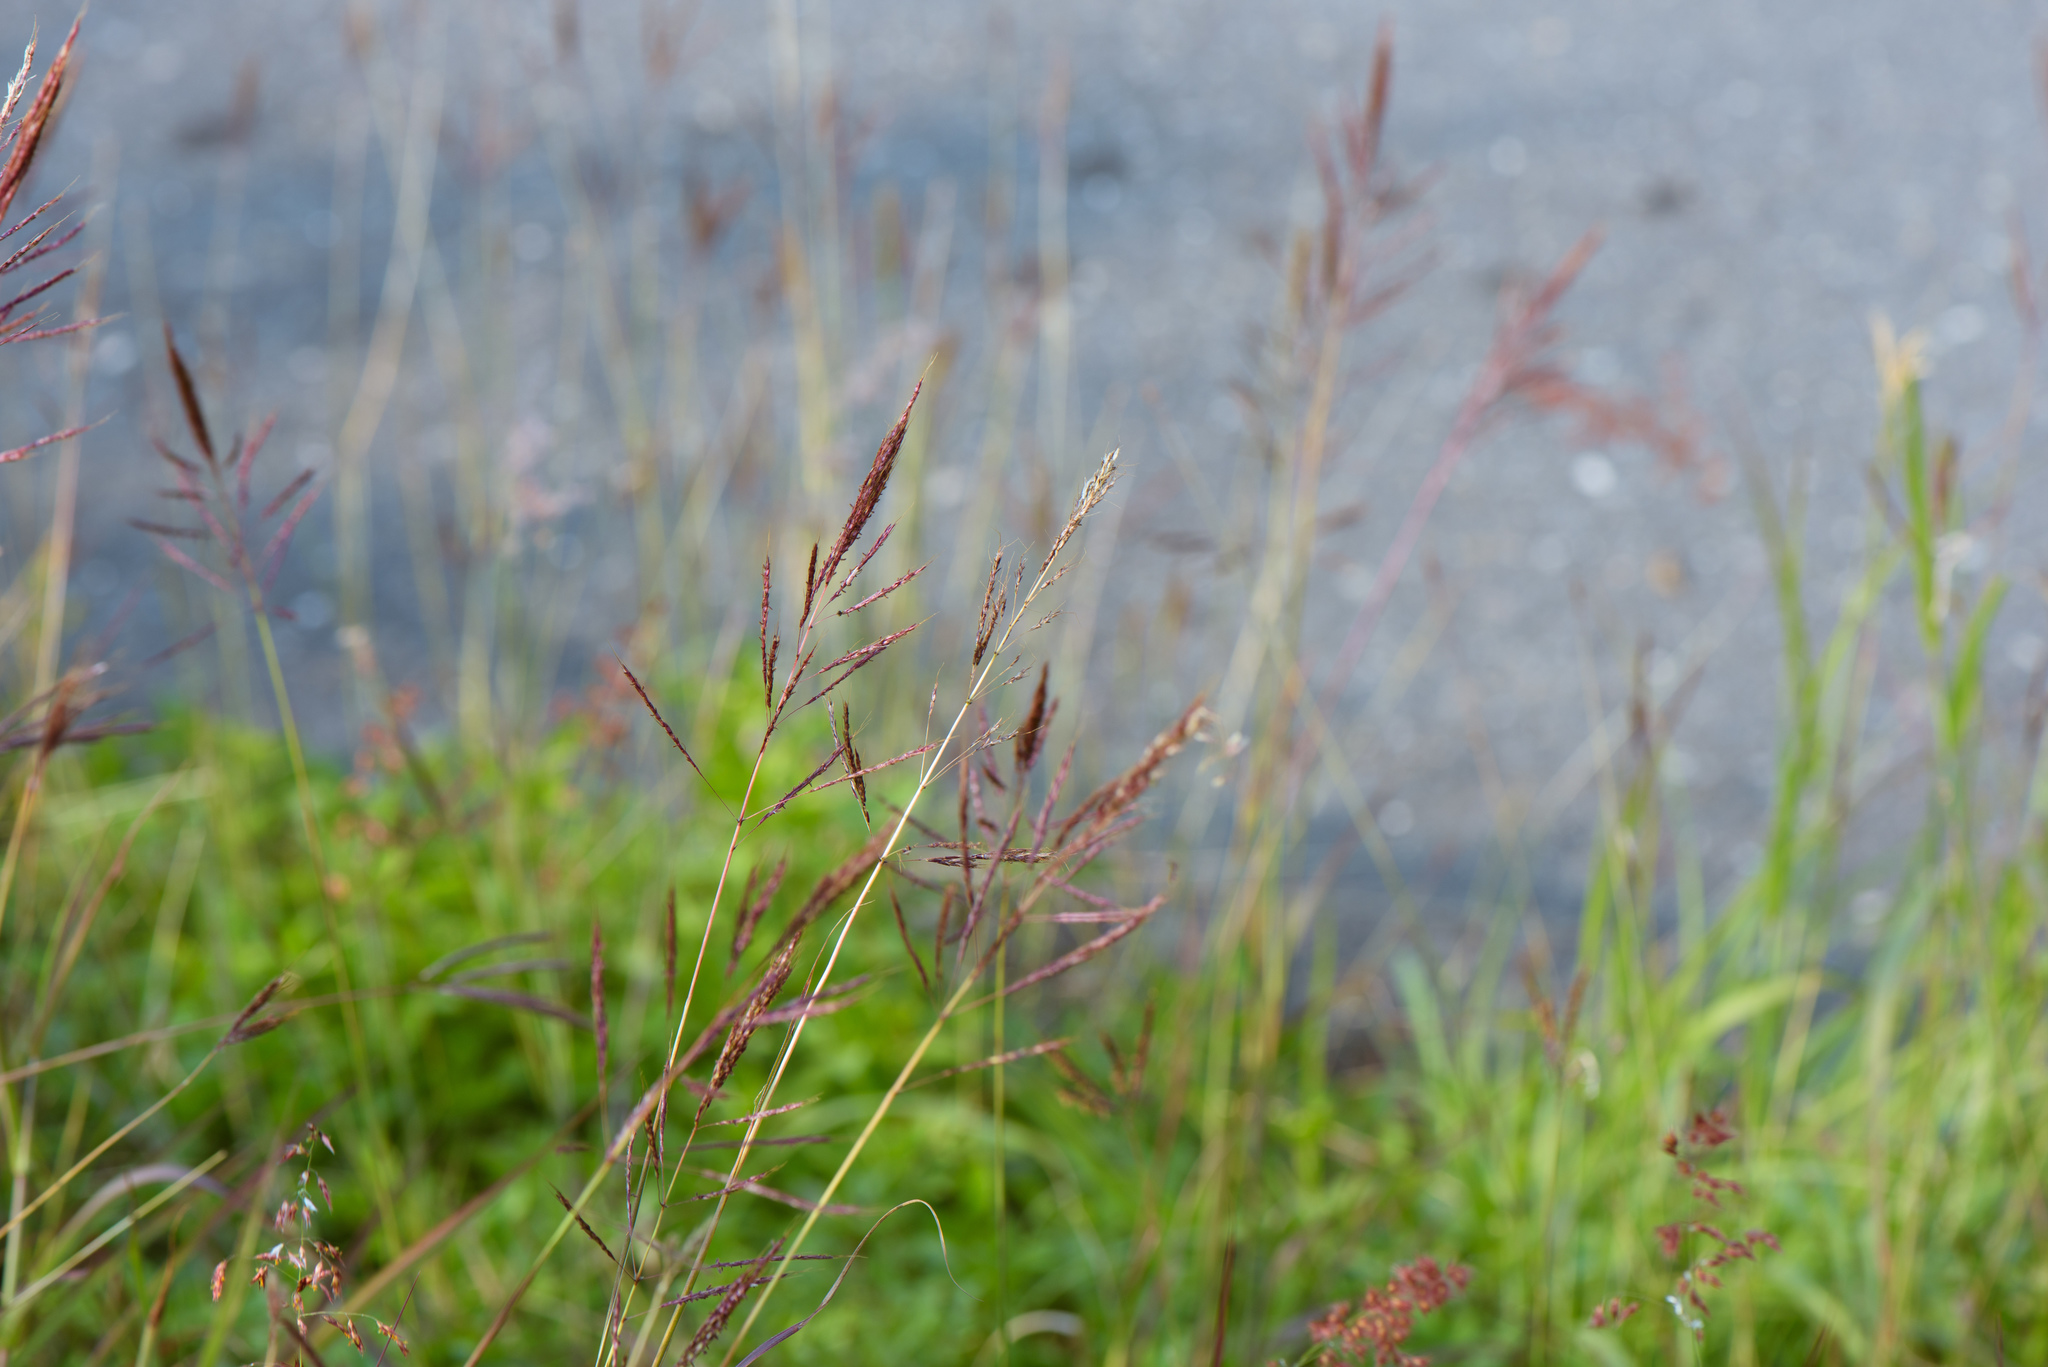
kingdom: Plantae
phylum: Tracheophyta
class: Liliopsida
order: Poales
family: Poaceae
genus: Bothriochloa
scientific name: Bothriochloa glabra
